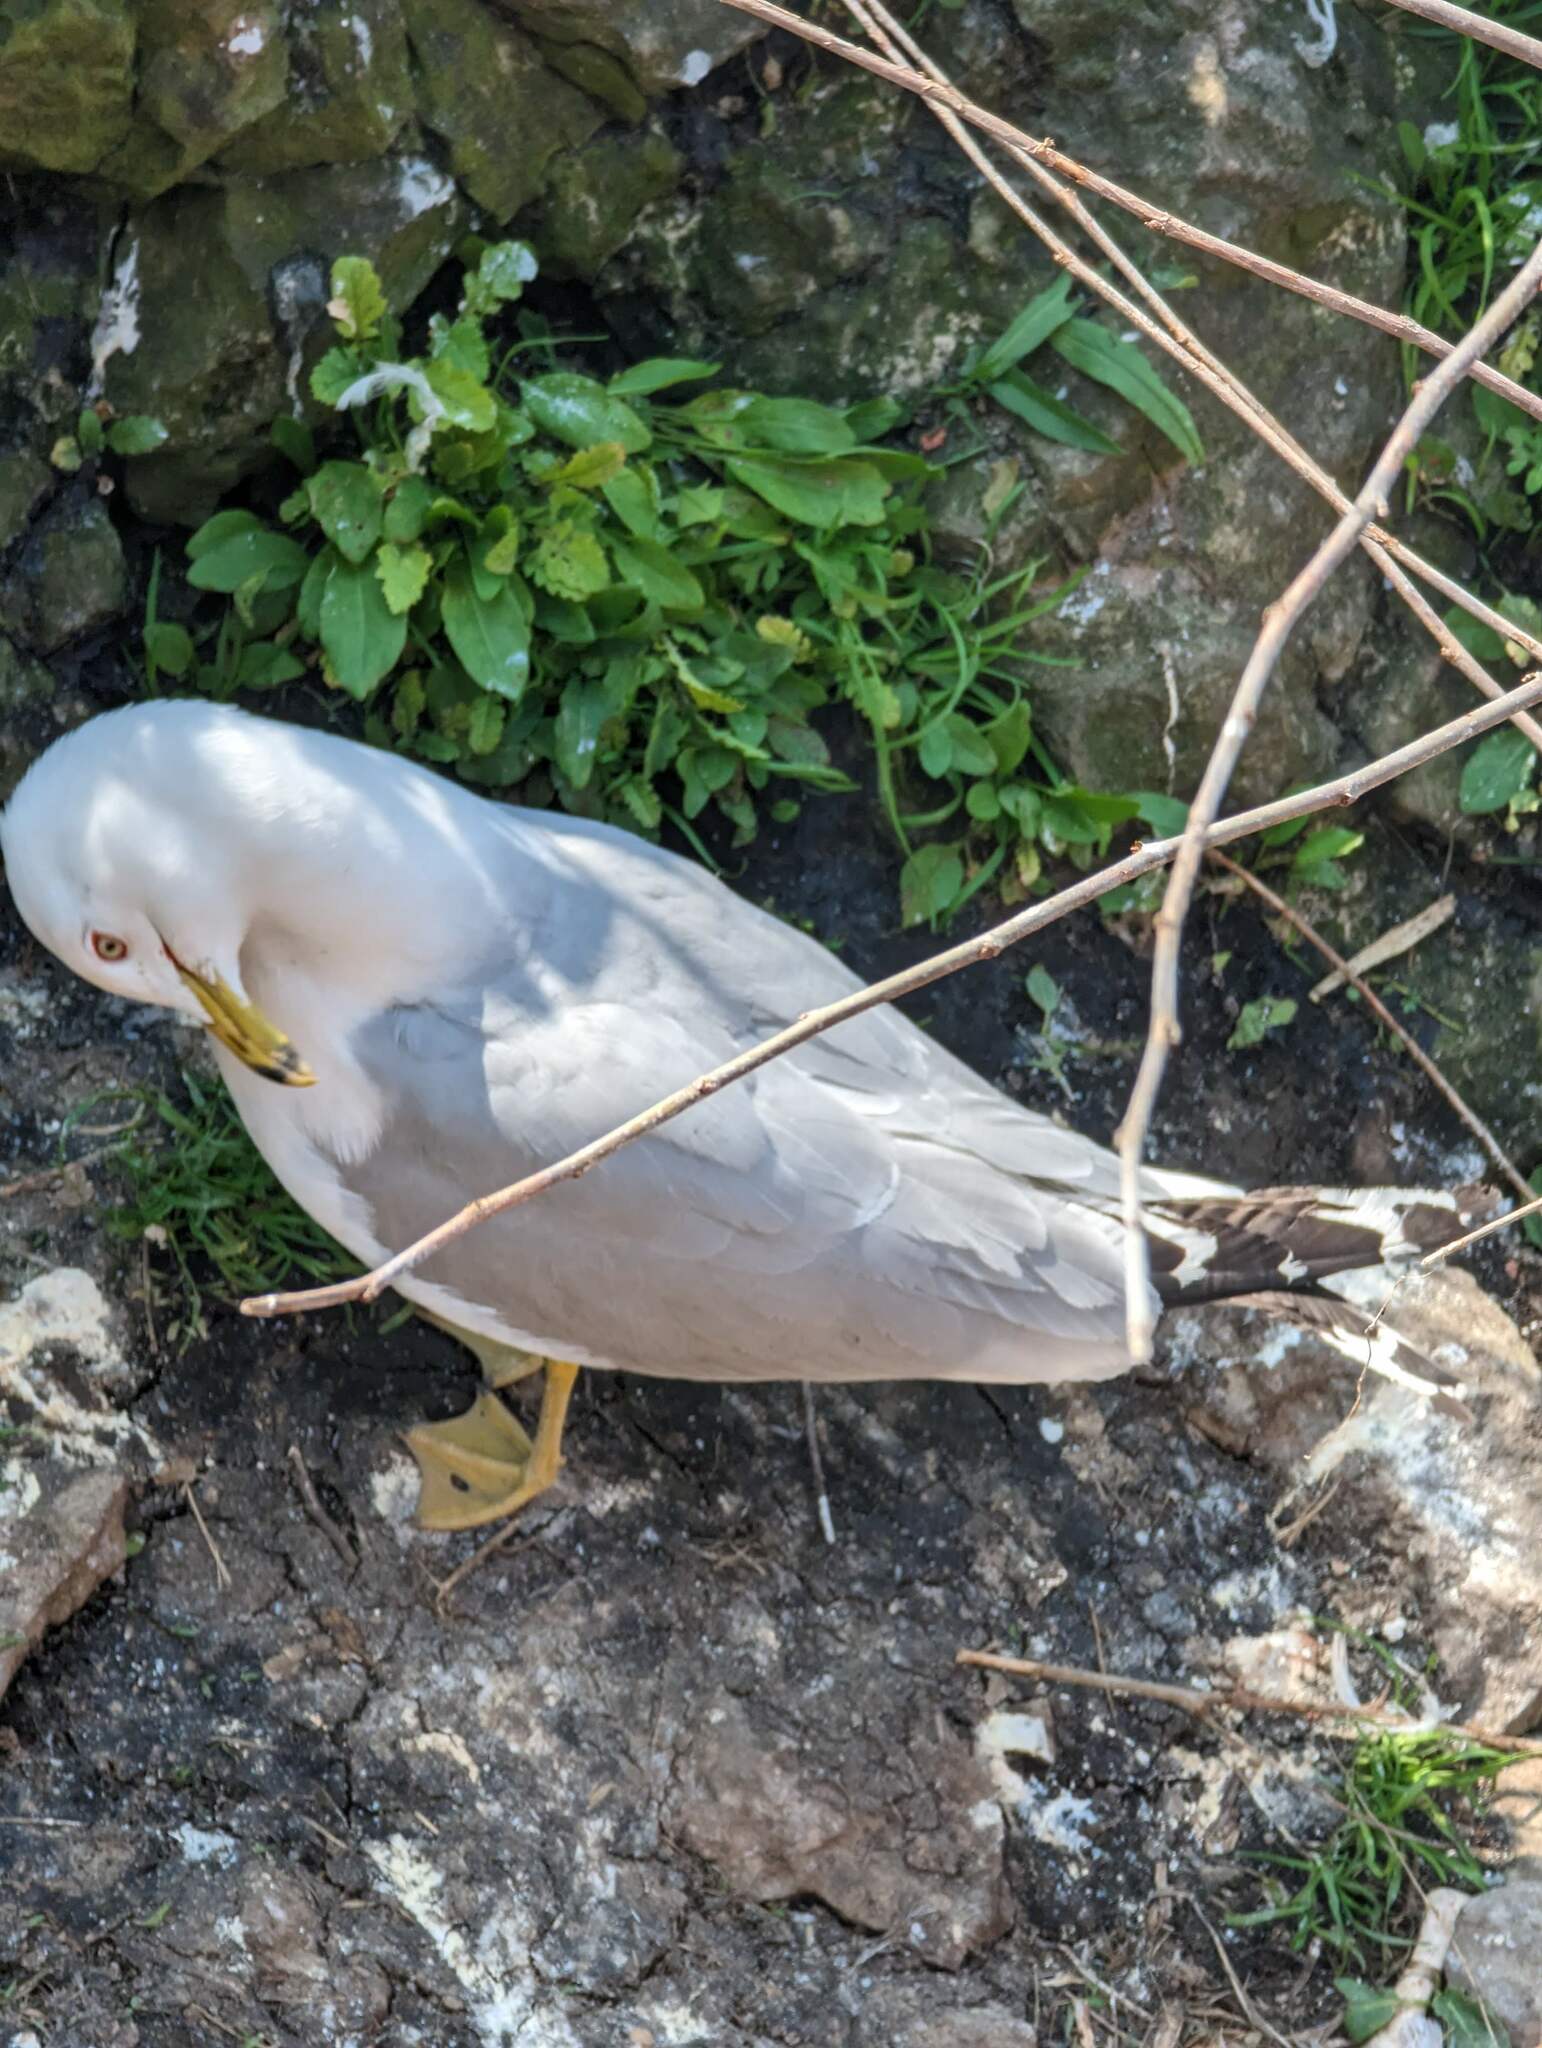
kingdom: Animalia
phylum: Chordata
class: Aves
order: Charadriiformes
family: Laridae
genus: Larus
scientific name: Larus delawarensis
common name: Ring-billed gull
